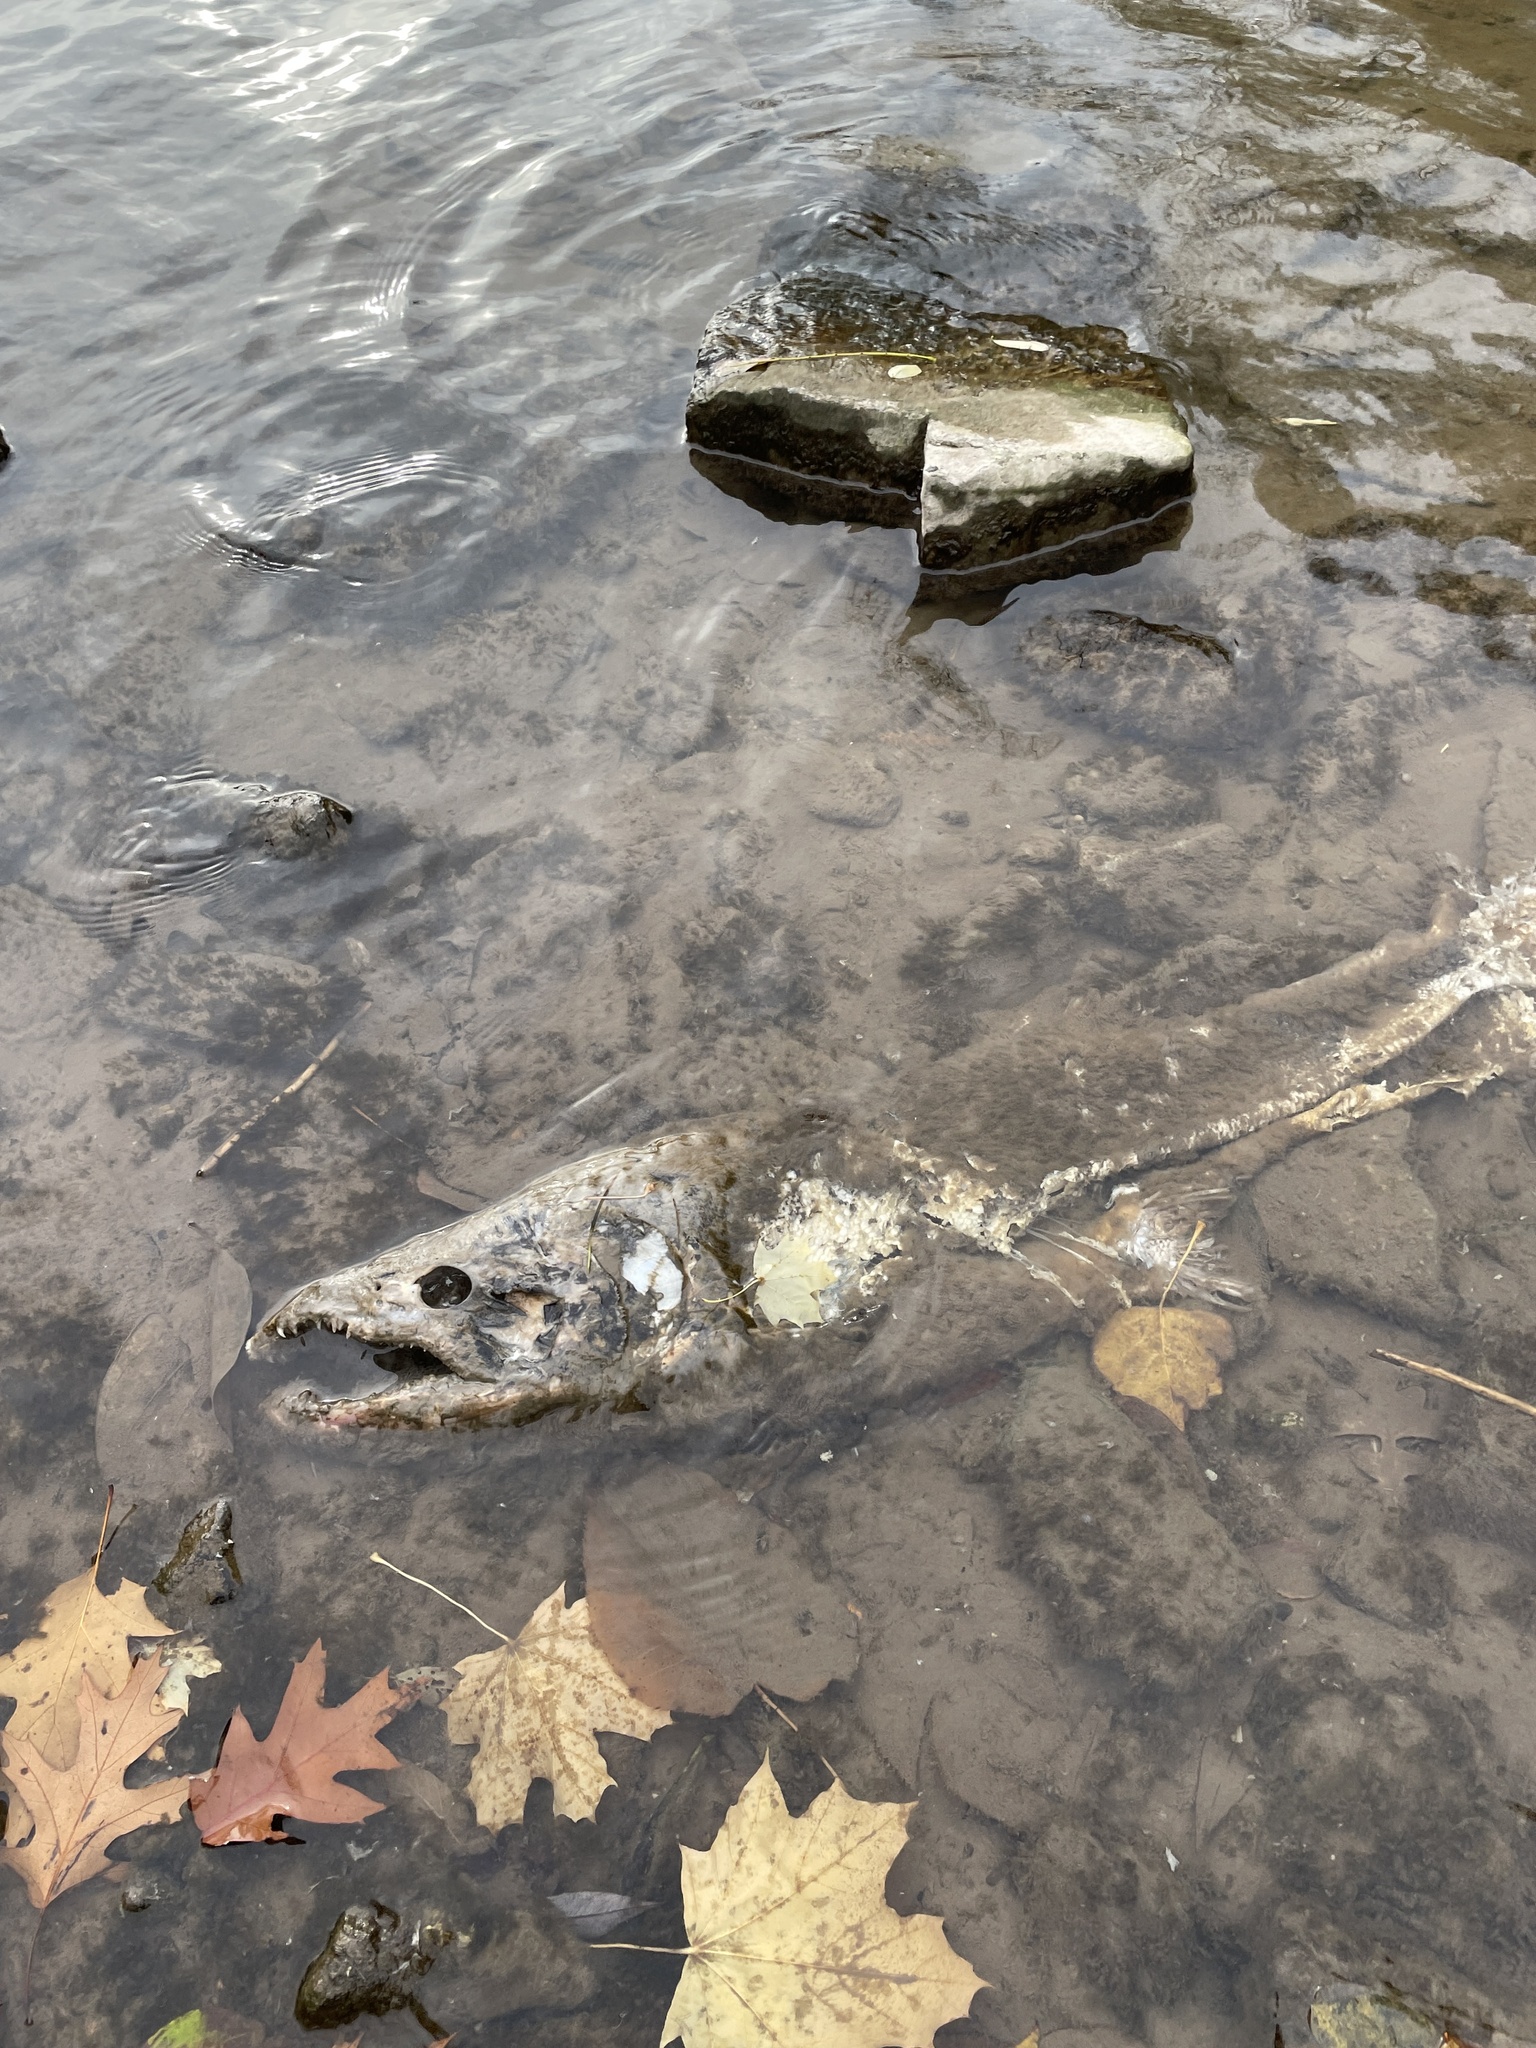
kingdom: Animalia
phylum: Chordata
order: Salmoniformes
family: Salmonidae
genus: Oncorhynchus
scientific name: Oncorhynchus tshawytscha
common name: Chinook salmon
